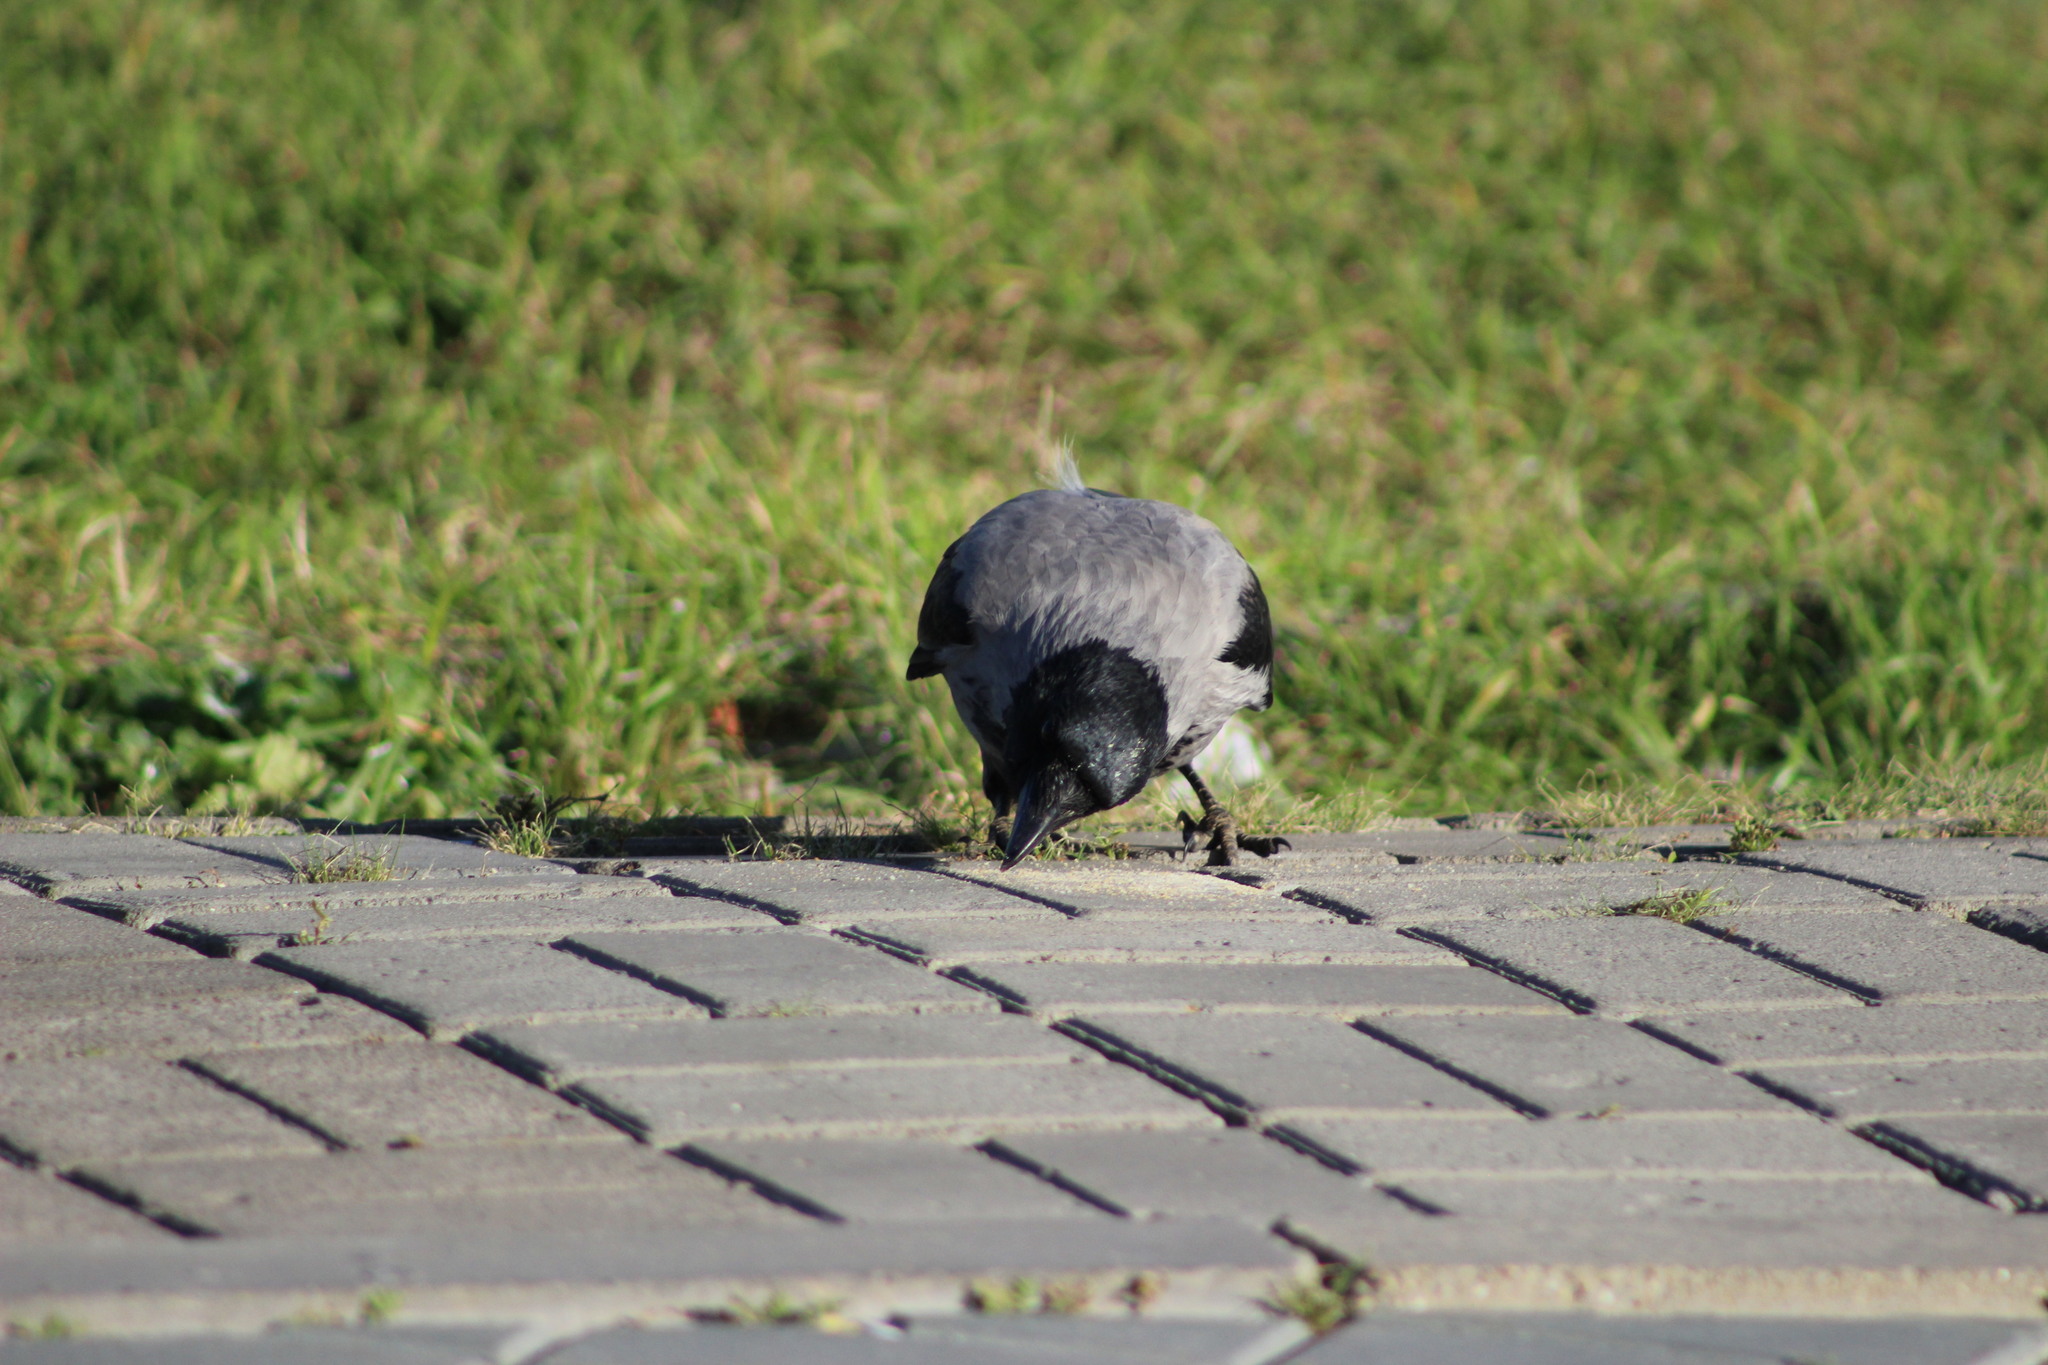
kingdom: Animalia
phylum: Chordata
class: Aves
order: Passeriformes
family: Corvidae
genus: Corvus
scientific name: Corvus cornix
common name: Hooded crow
